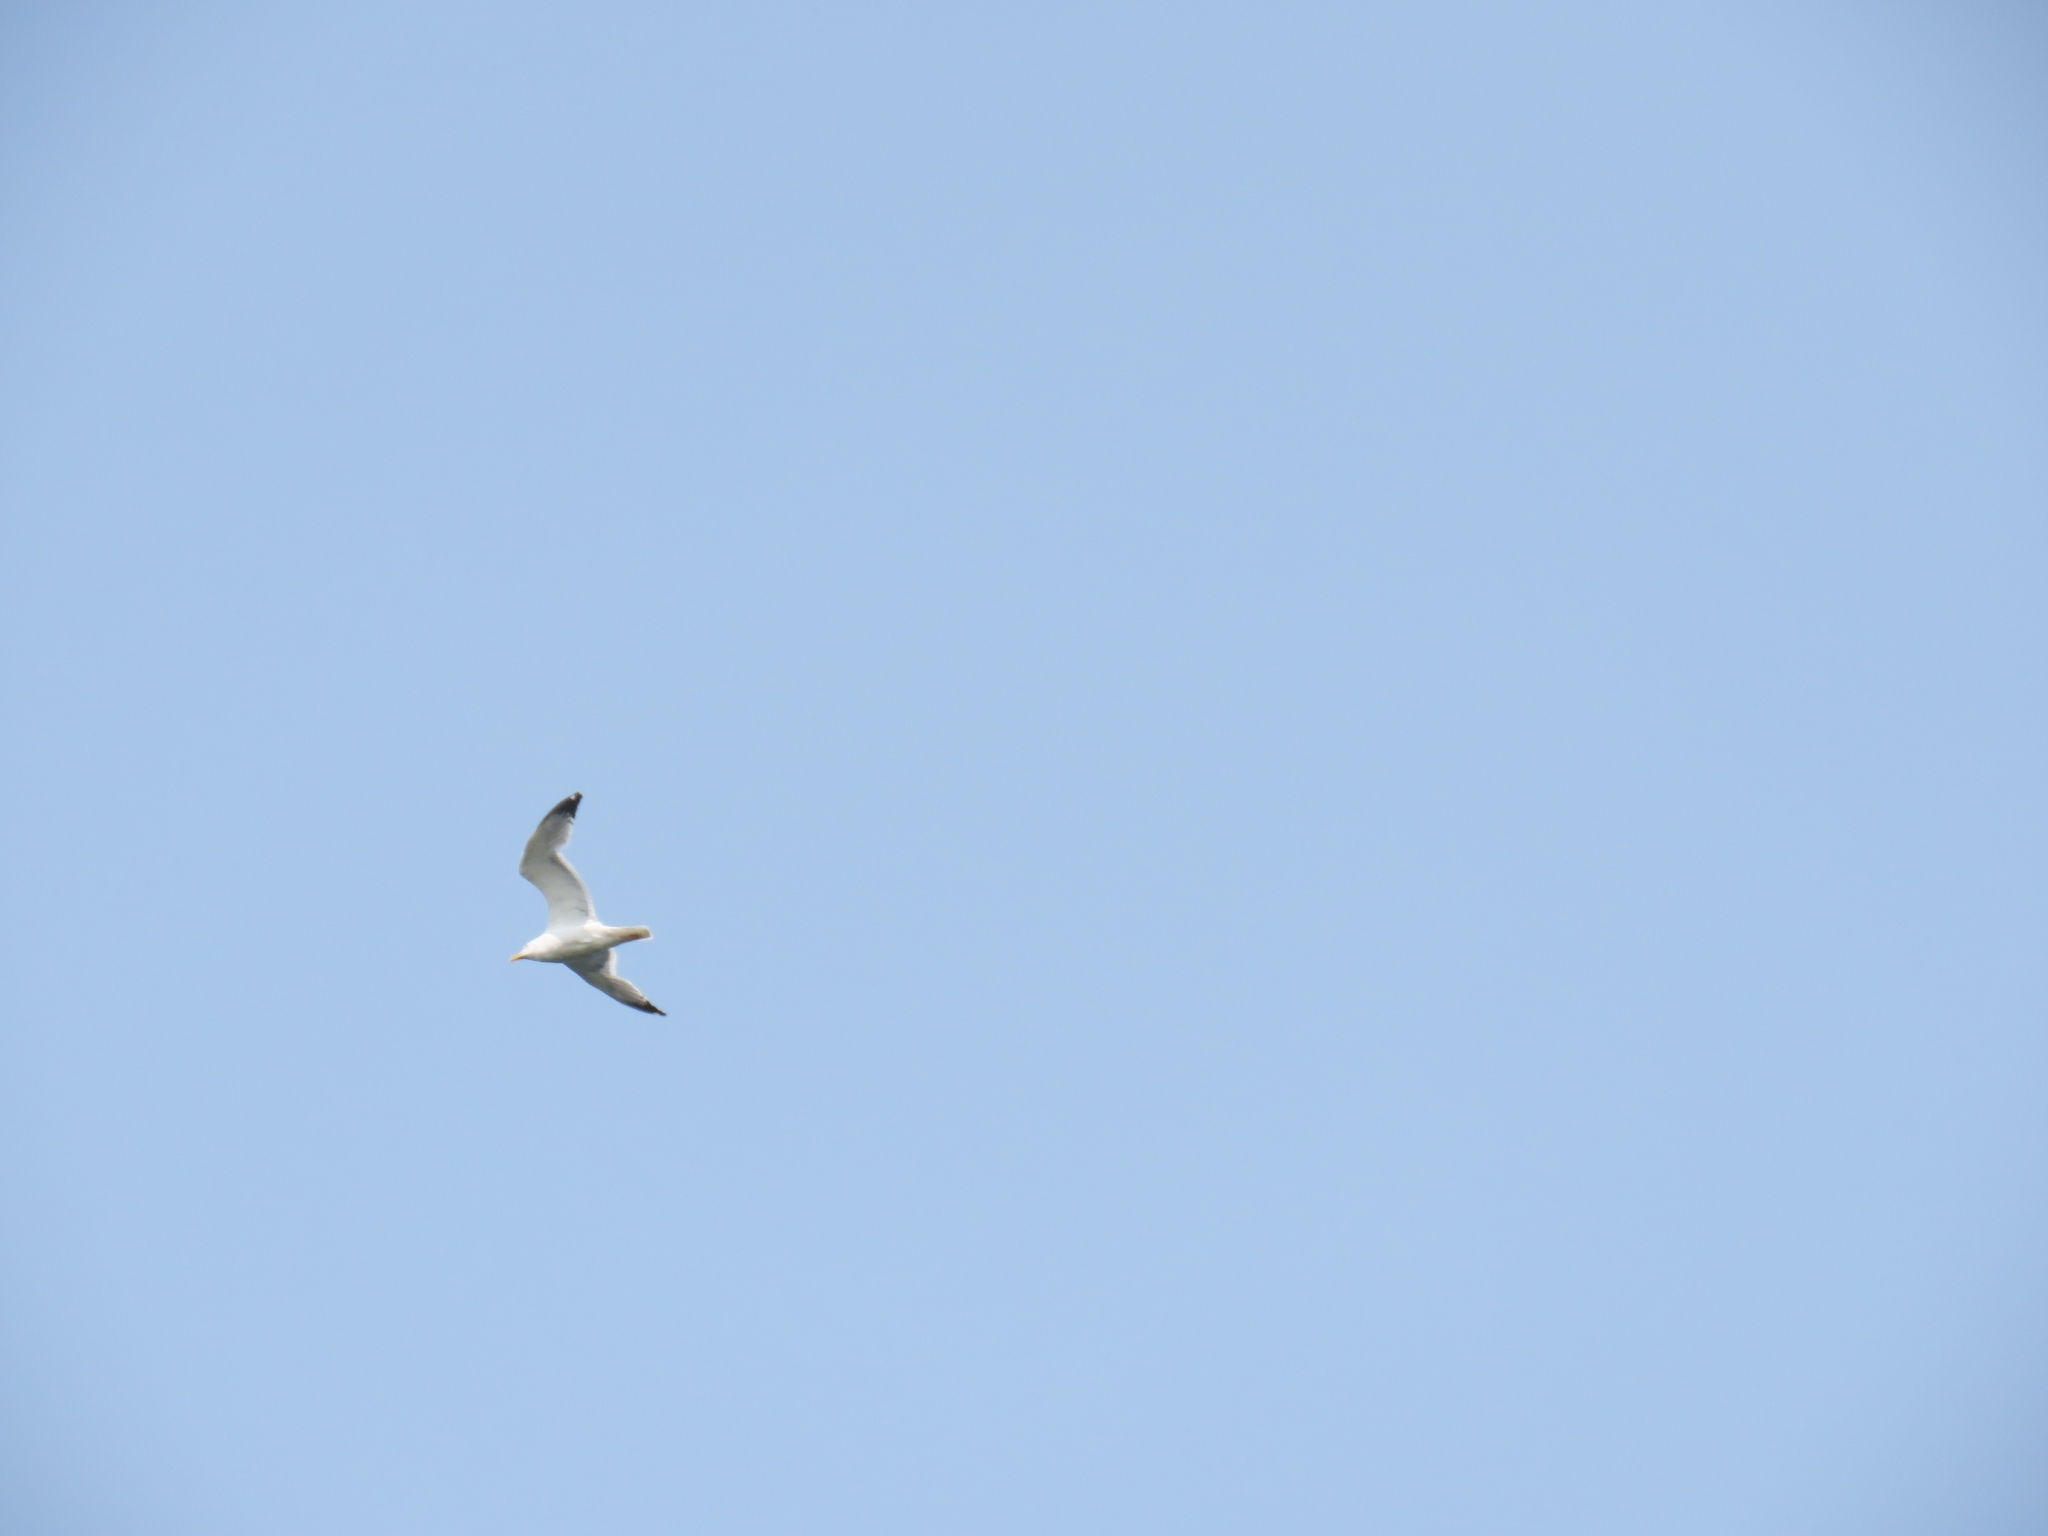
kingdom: Animalia
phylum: Chordata
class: Aves
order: Charadriiformes
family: Laridae
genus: Larus
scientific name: Larus argentatus
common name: Herring gull
